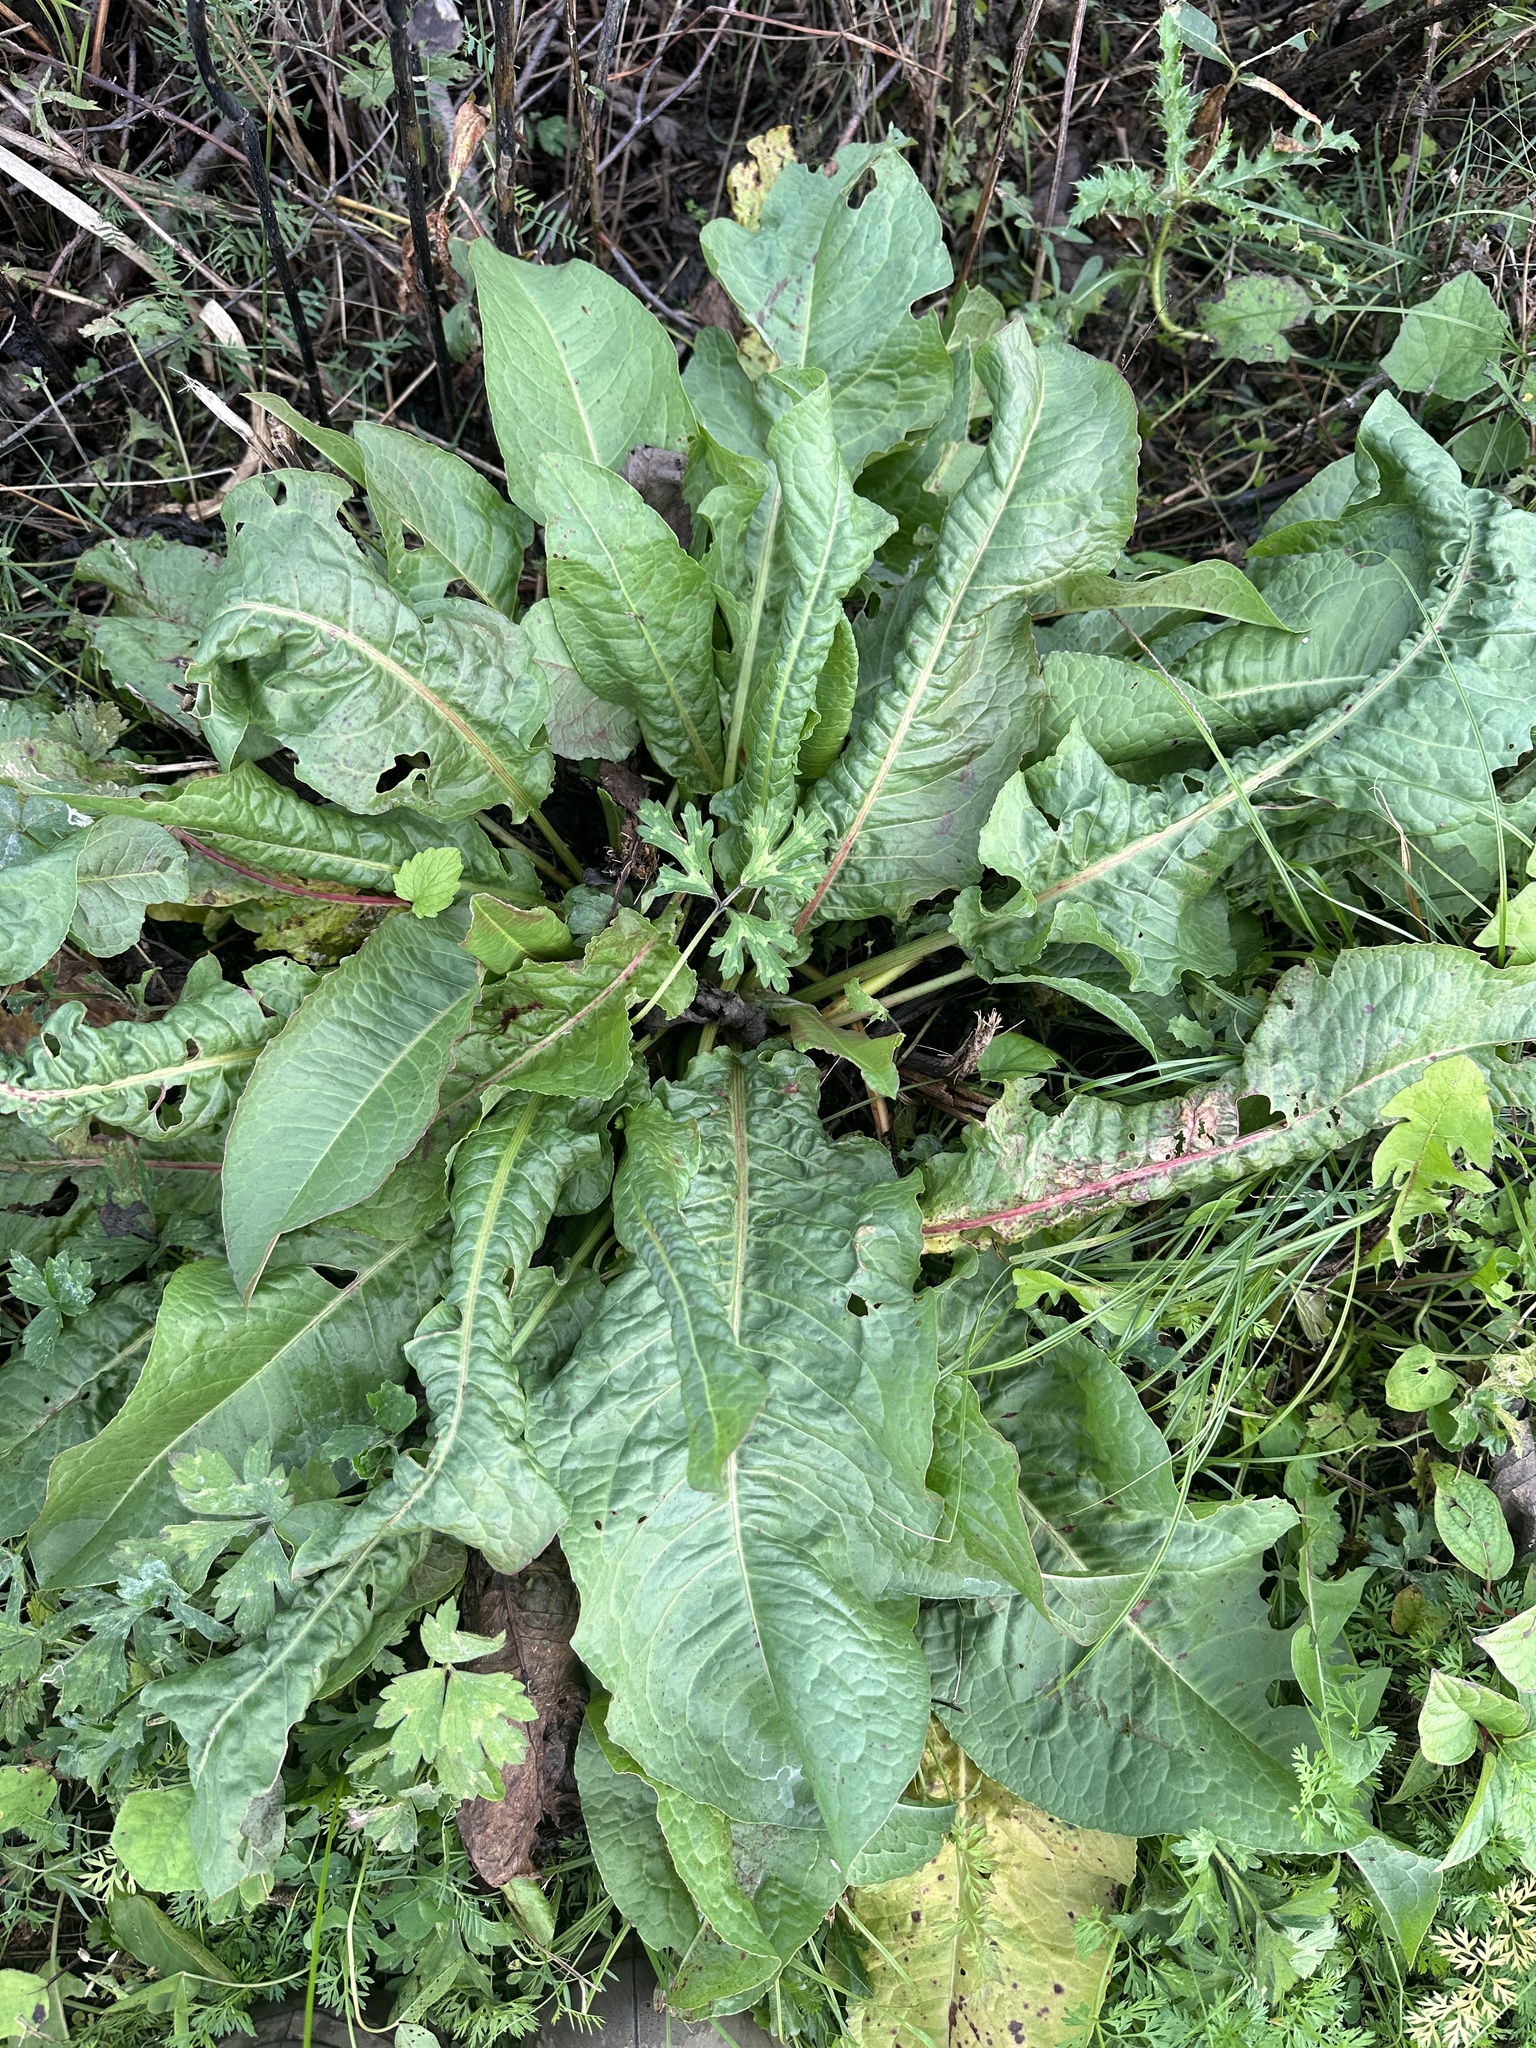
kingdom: Plantae
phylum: Tracheophyta
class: Magnoliopsida
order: Caryophyllales
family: Polygonaceae
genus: Rumex
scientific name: Rumex obtusifolius
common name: Bitter dock
